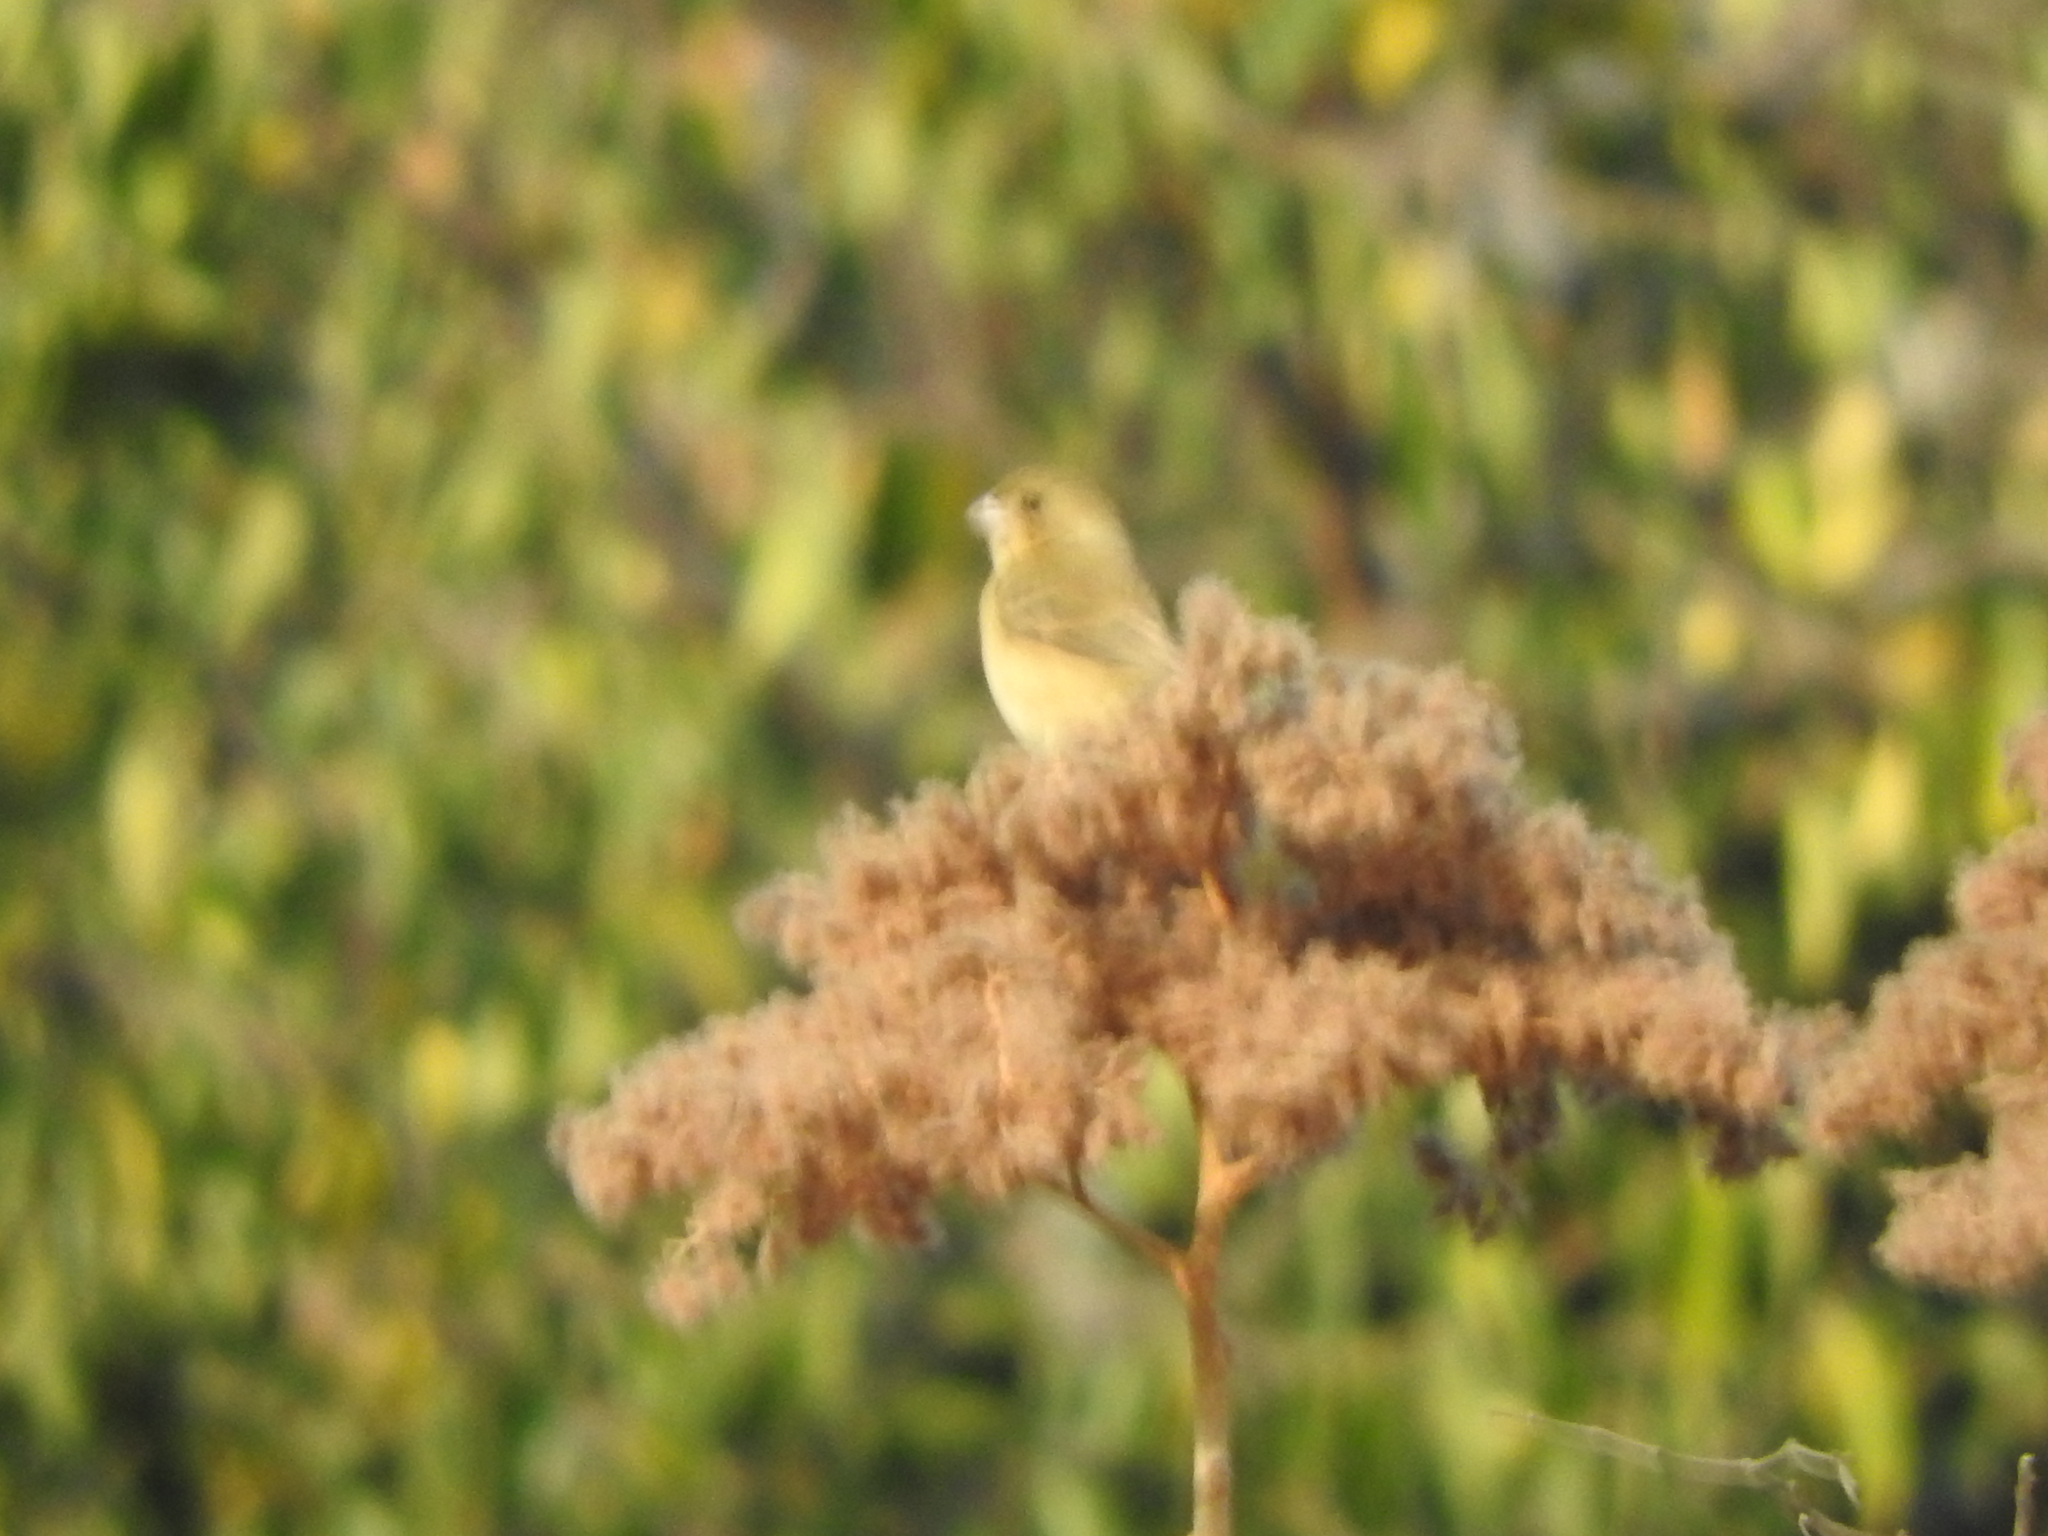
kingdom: Animalia
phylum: Chordata
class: Aves
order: Passeriformes
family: Thraupidae
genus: Sporophila
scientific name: Sporophila torqueola
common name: White-collared seedeater
